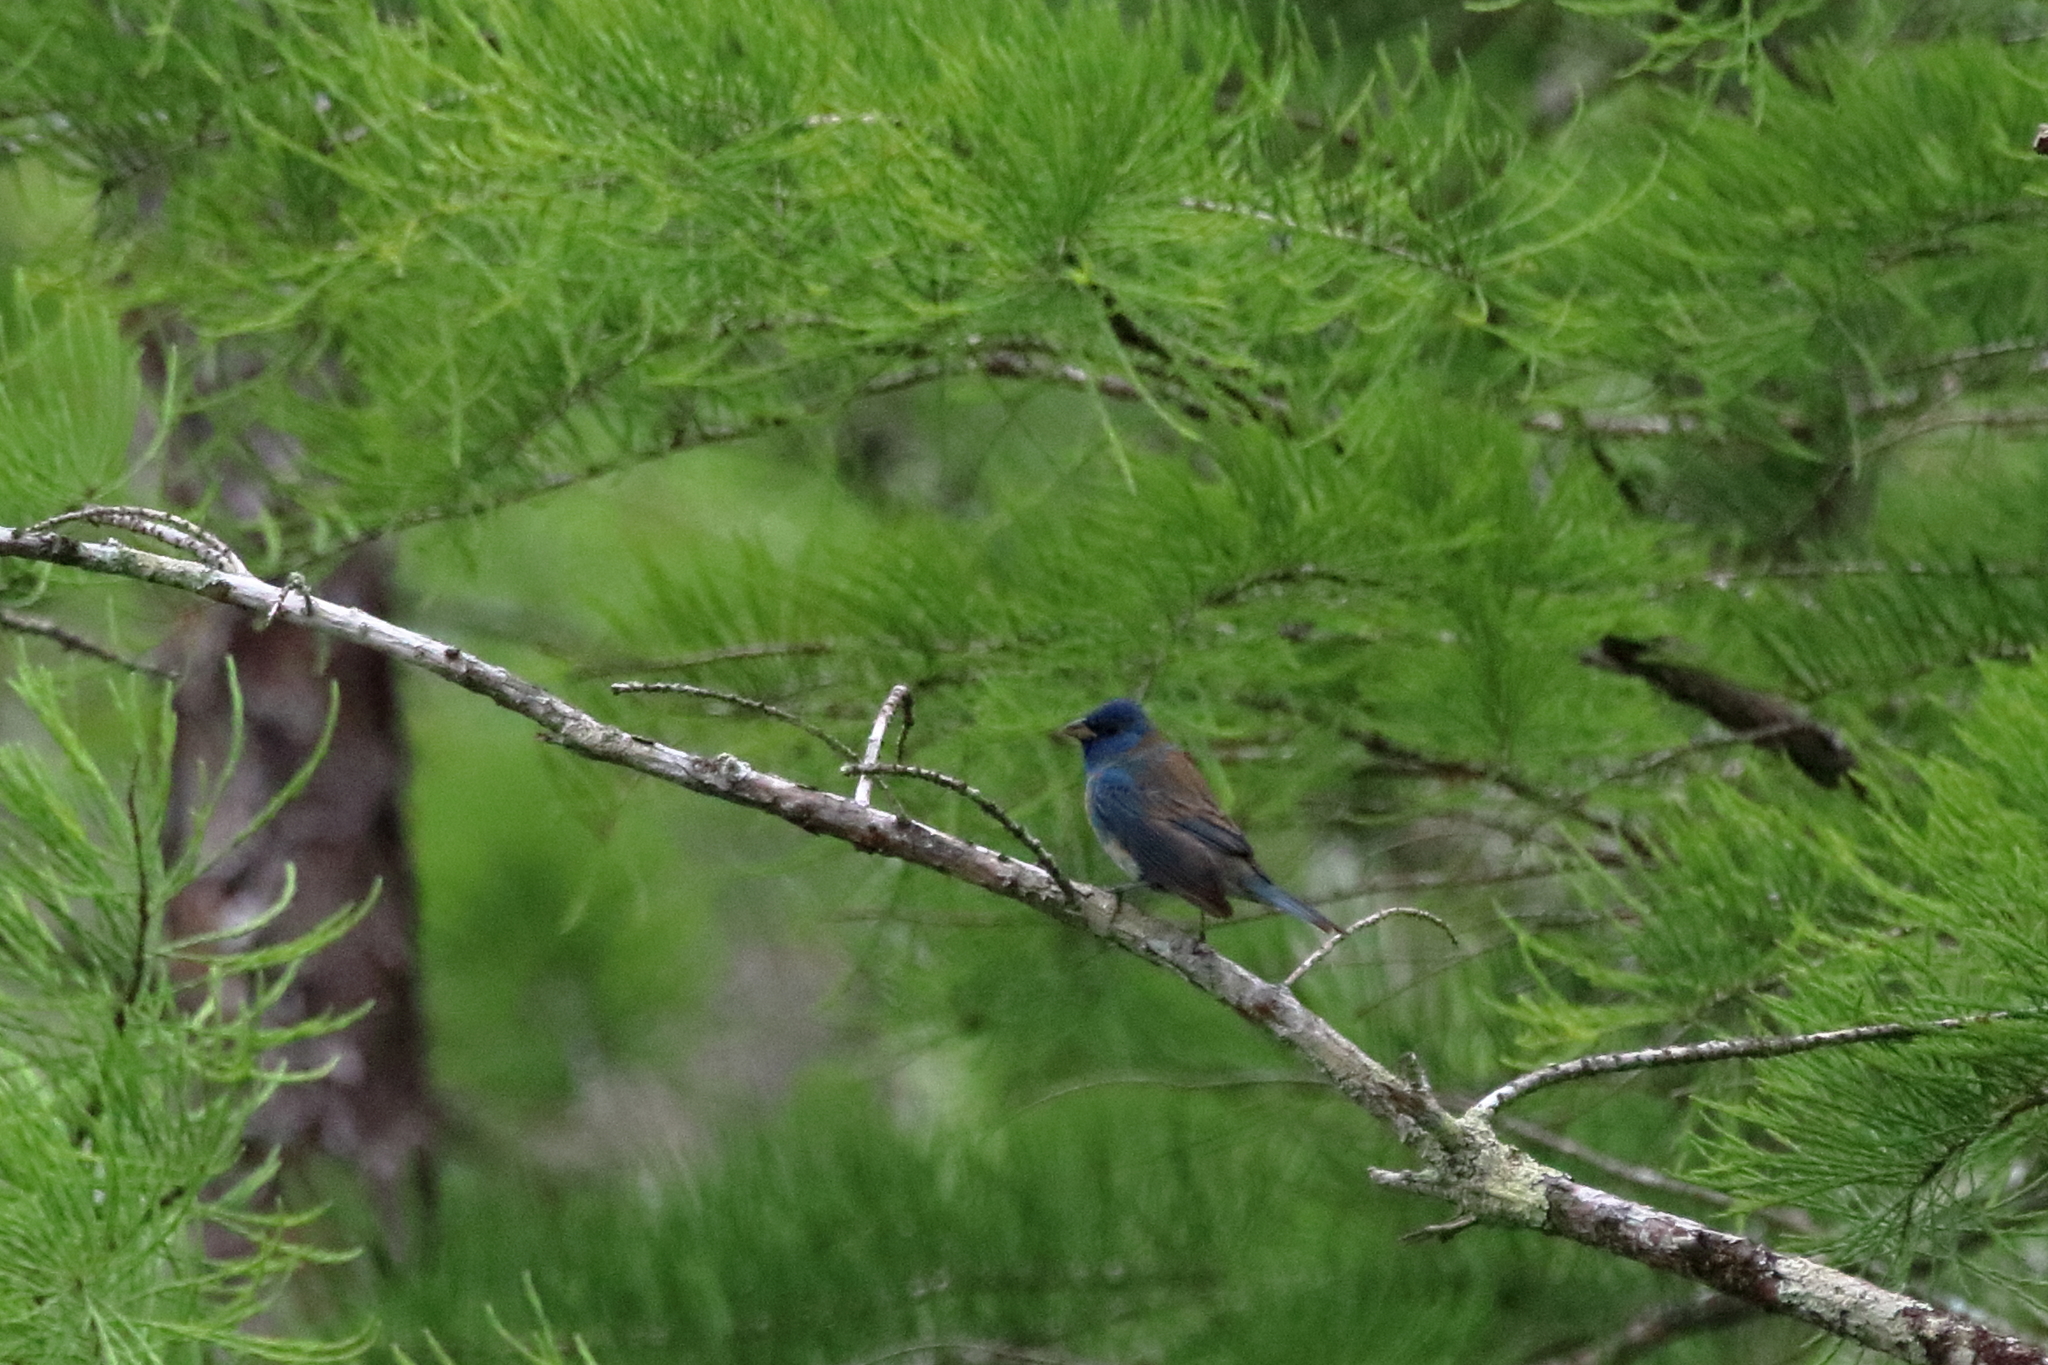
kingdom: Animalia
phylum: Chordata
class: Aves
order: Passeriformes
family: Cardinalidae
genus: Passerina
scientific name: Passerina cyanea
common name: Indigo bunting
